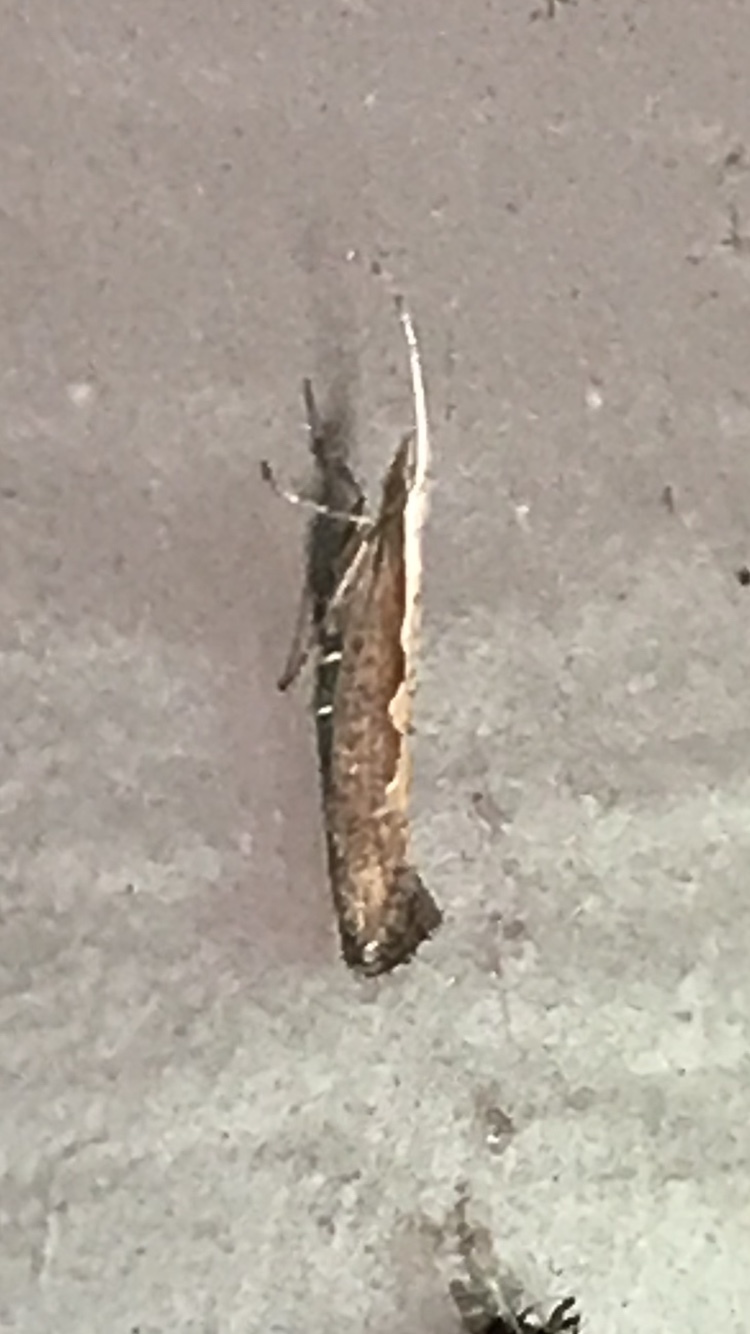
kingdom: Animalia
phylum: Arthropoda
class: Insecta
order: Lepidoptera
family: Plutellidae
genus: Plutella
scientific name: Plutella xylostella
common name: Diamond-back moth
